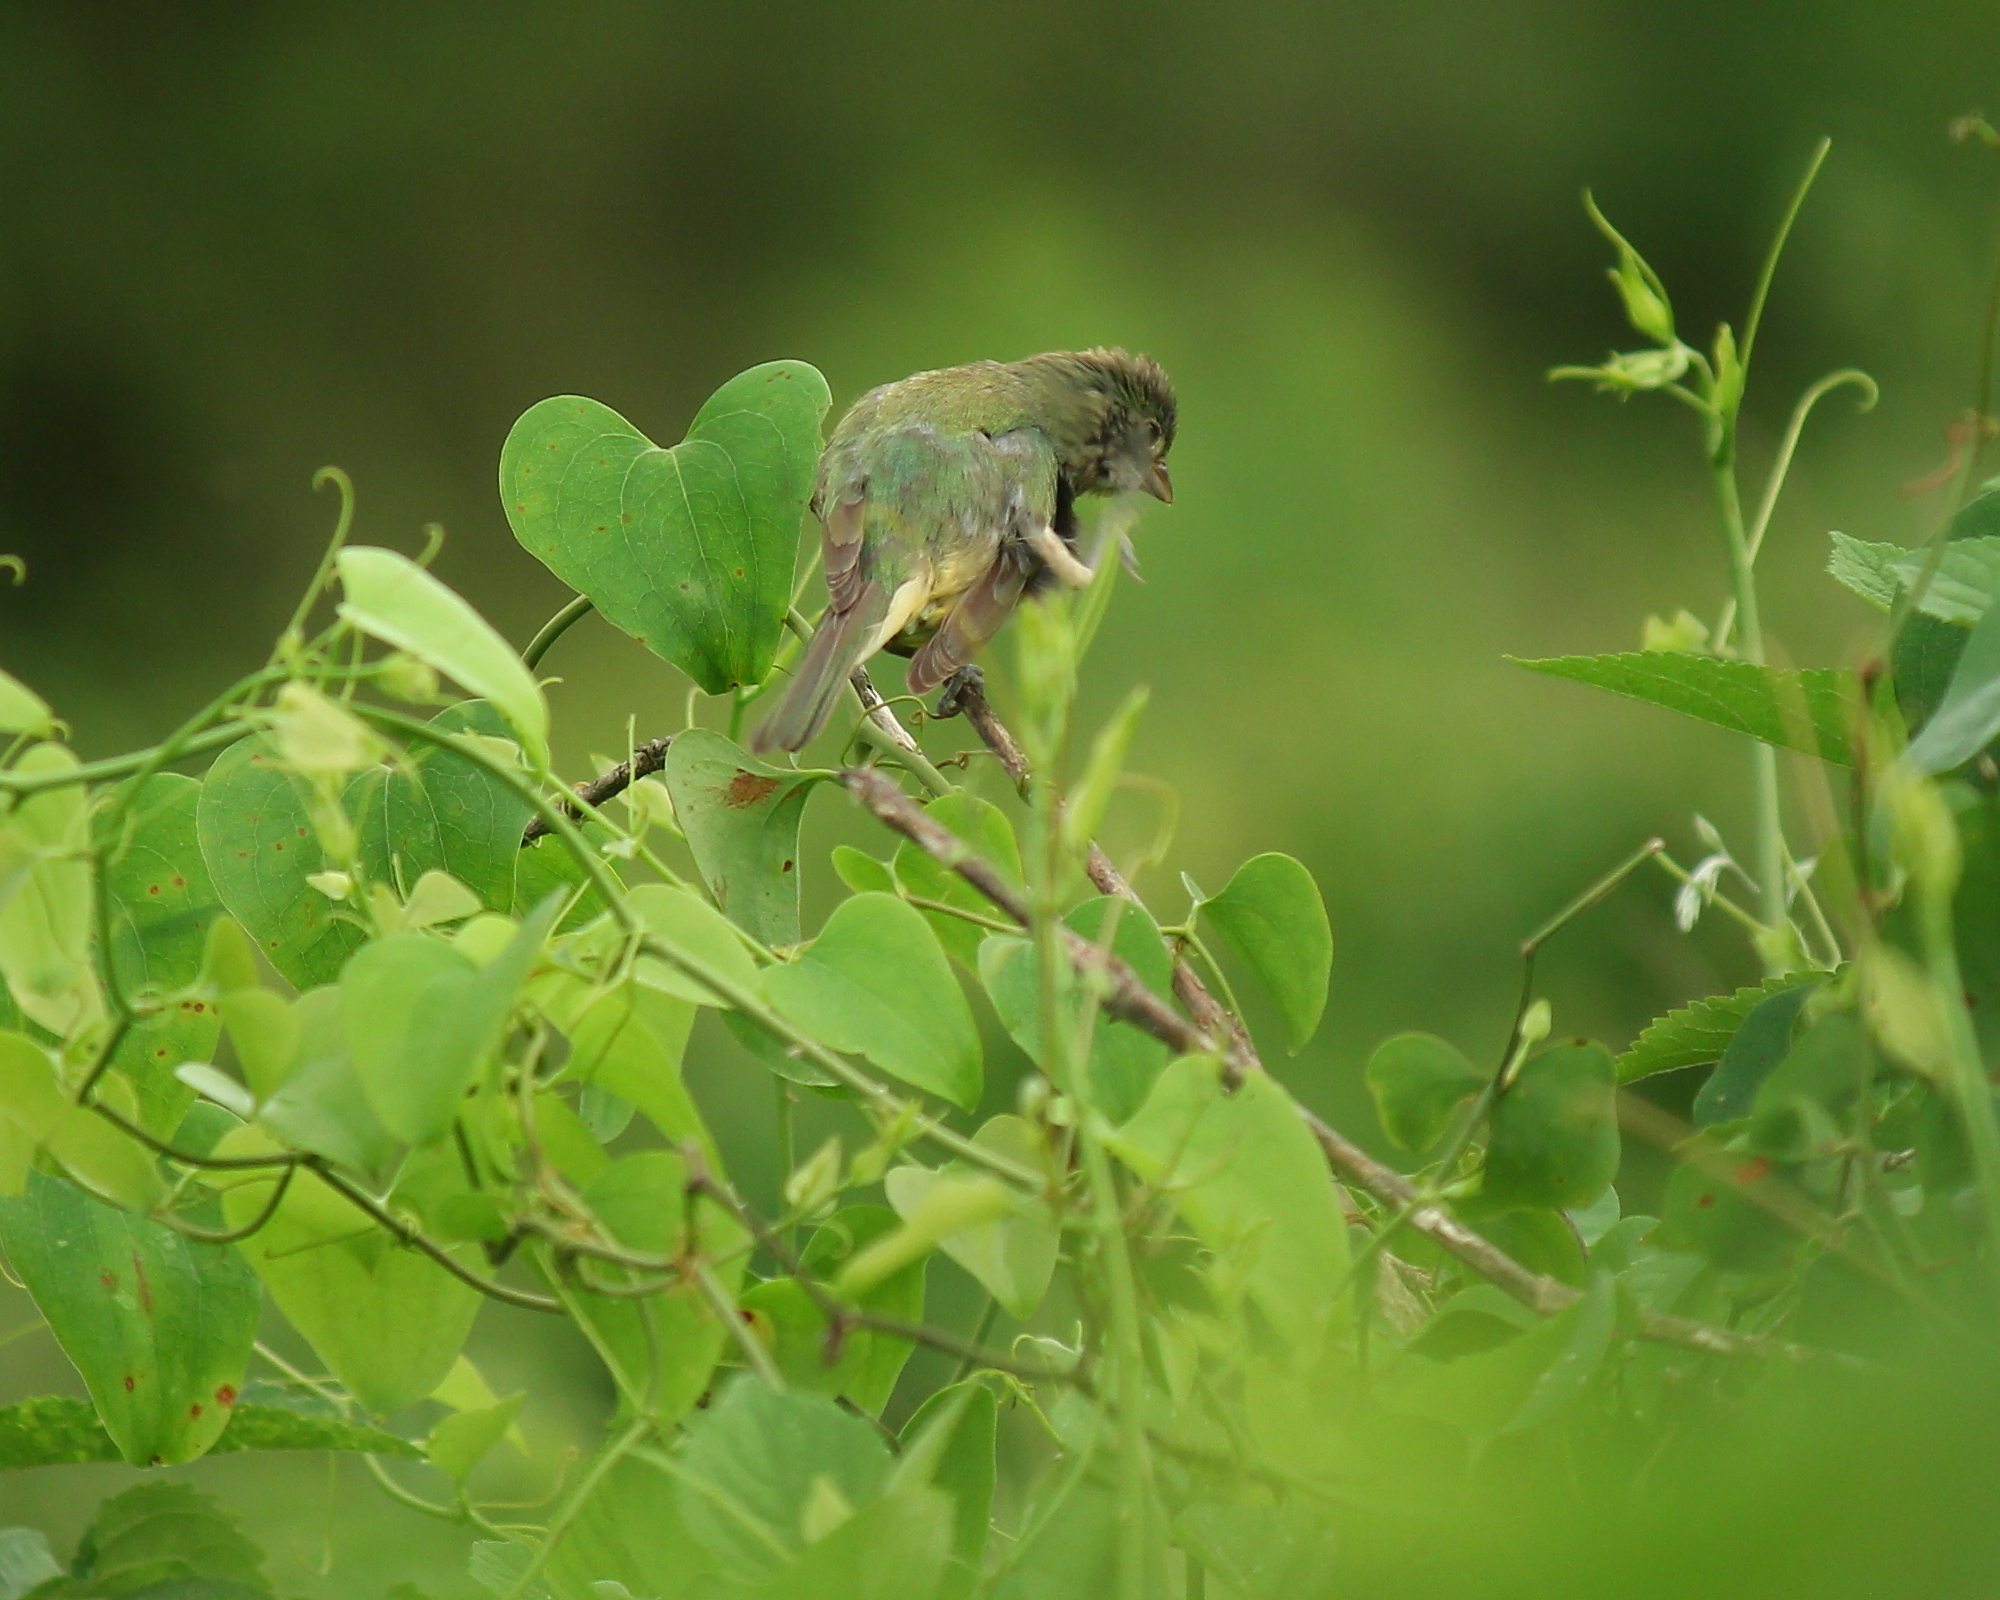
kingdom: Animalia
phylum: Chordata
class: Aves
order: Passeriformes
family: Cardinalidae
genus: Passerina
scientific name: Passerina ciris
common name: Painted bunting
